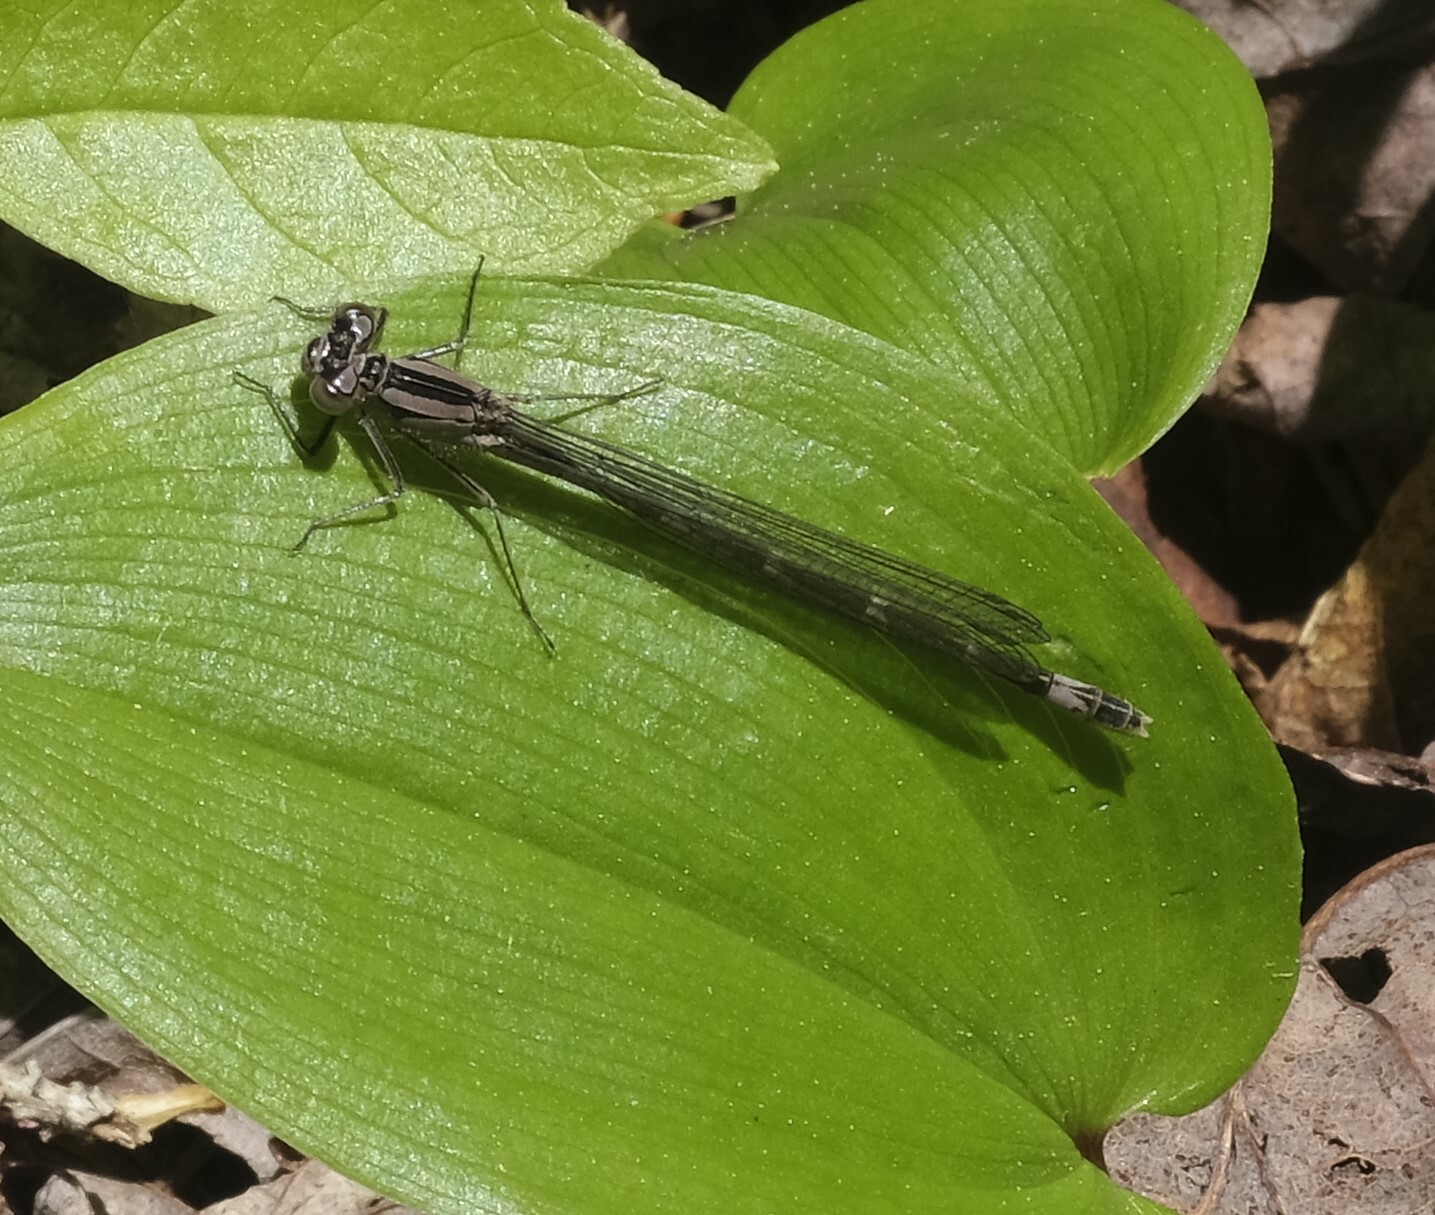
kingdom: Animalia
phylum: Arthropoda
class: Insecta
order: Odonata
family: Coenagrionidae
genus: Enallagma
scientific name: Enallagma geminatum
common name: Skimming bluet
